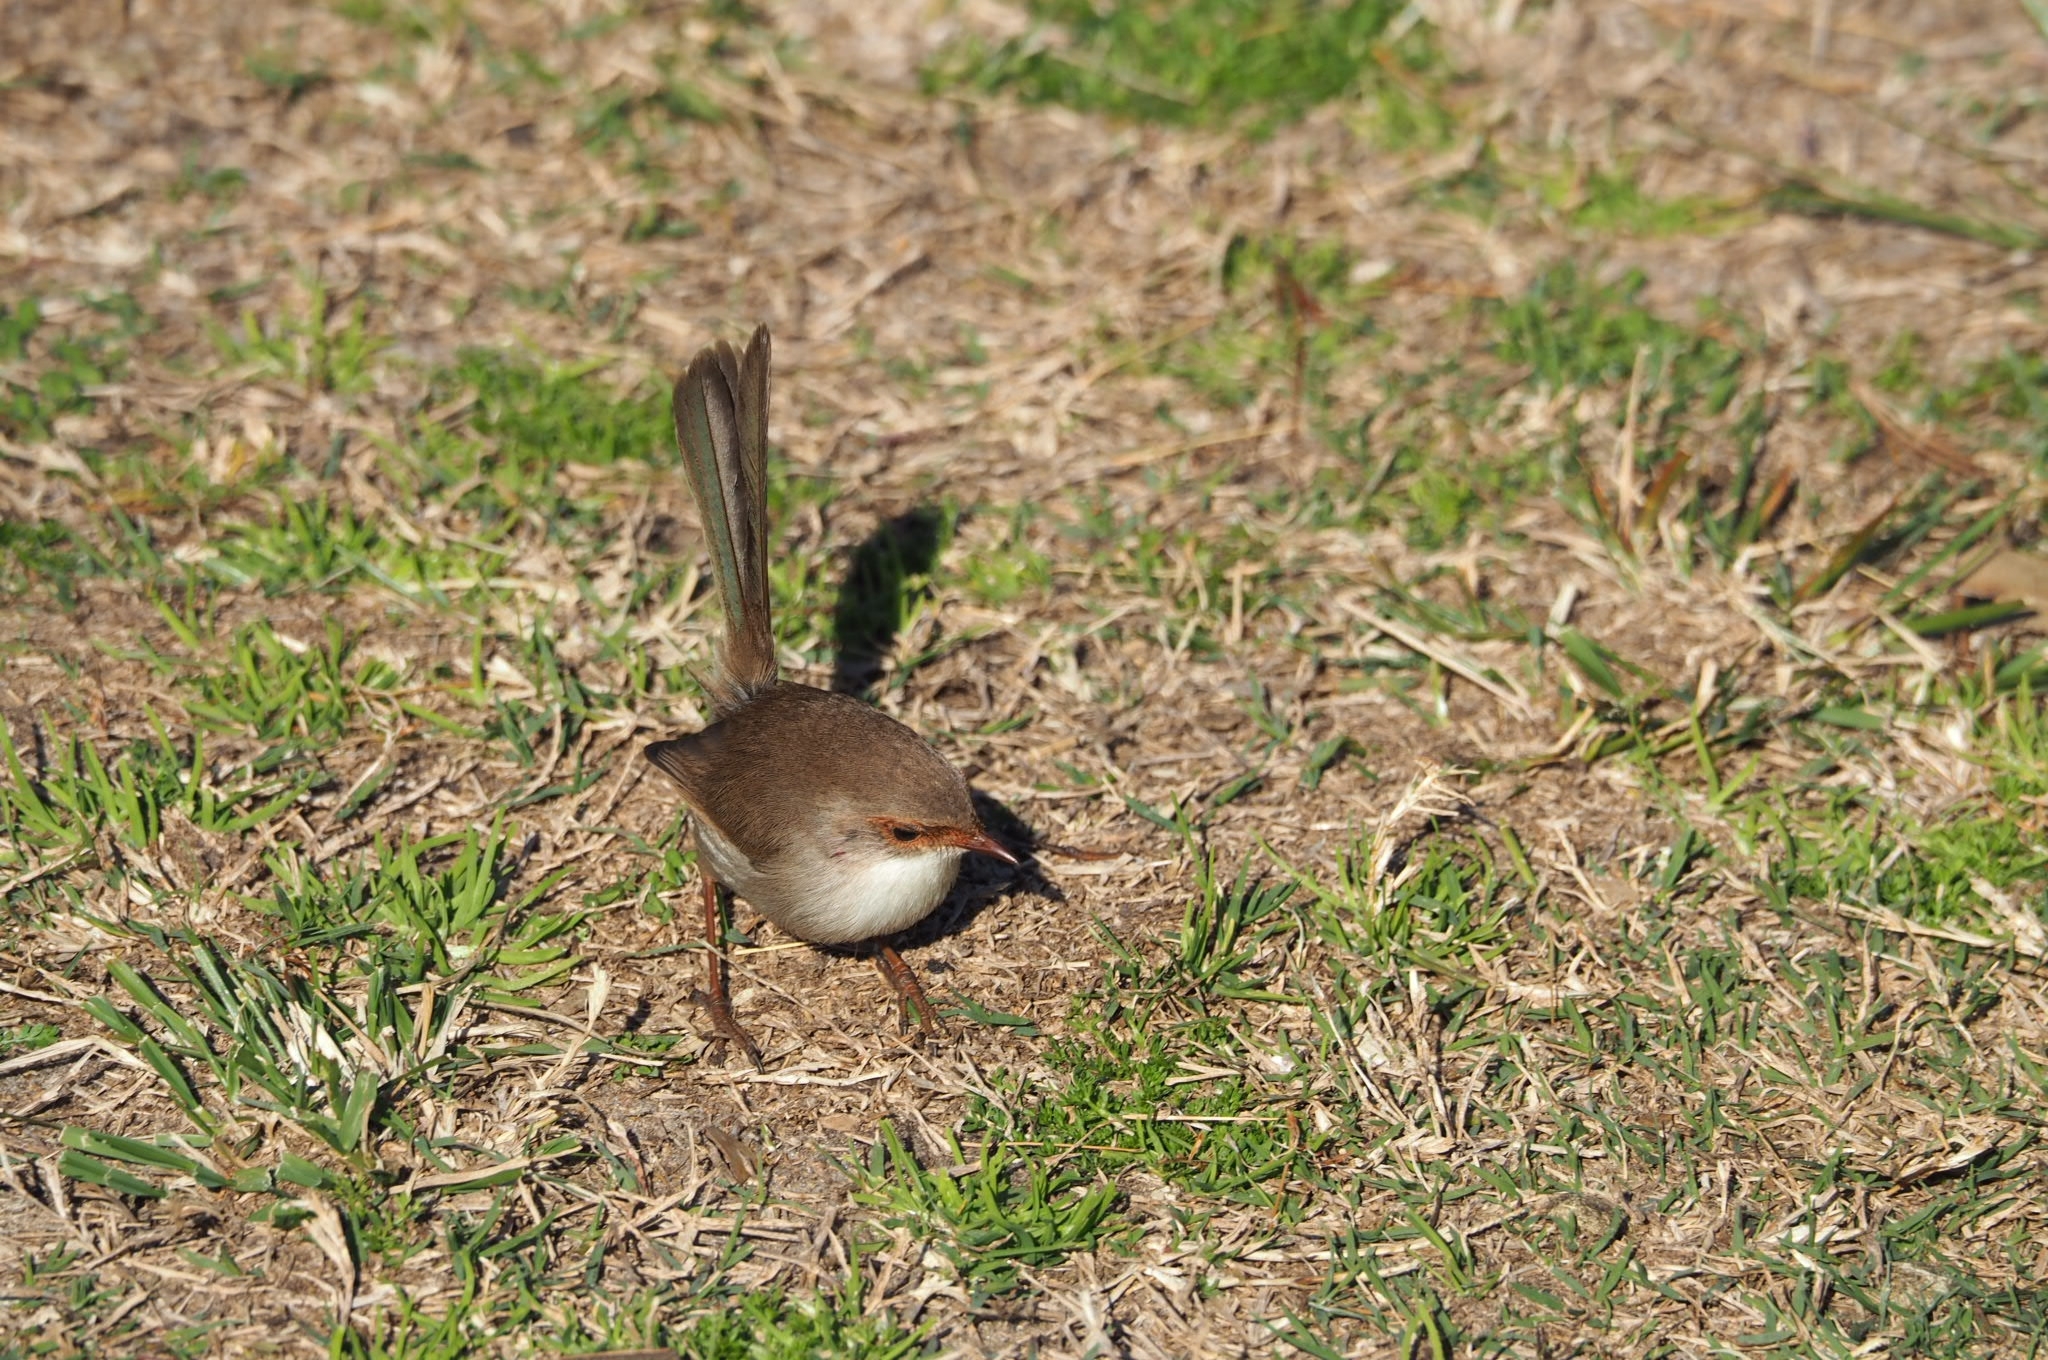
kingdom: Animalia
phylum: Chordata
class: Aves
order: Passeriformes
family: Maluridae
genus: Malurus
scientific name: Malurus cyaneus
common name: Superb fairywren
